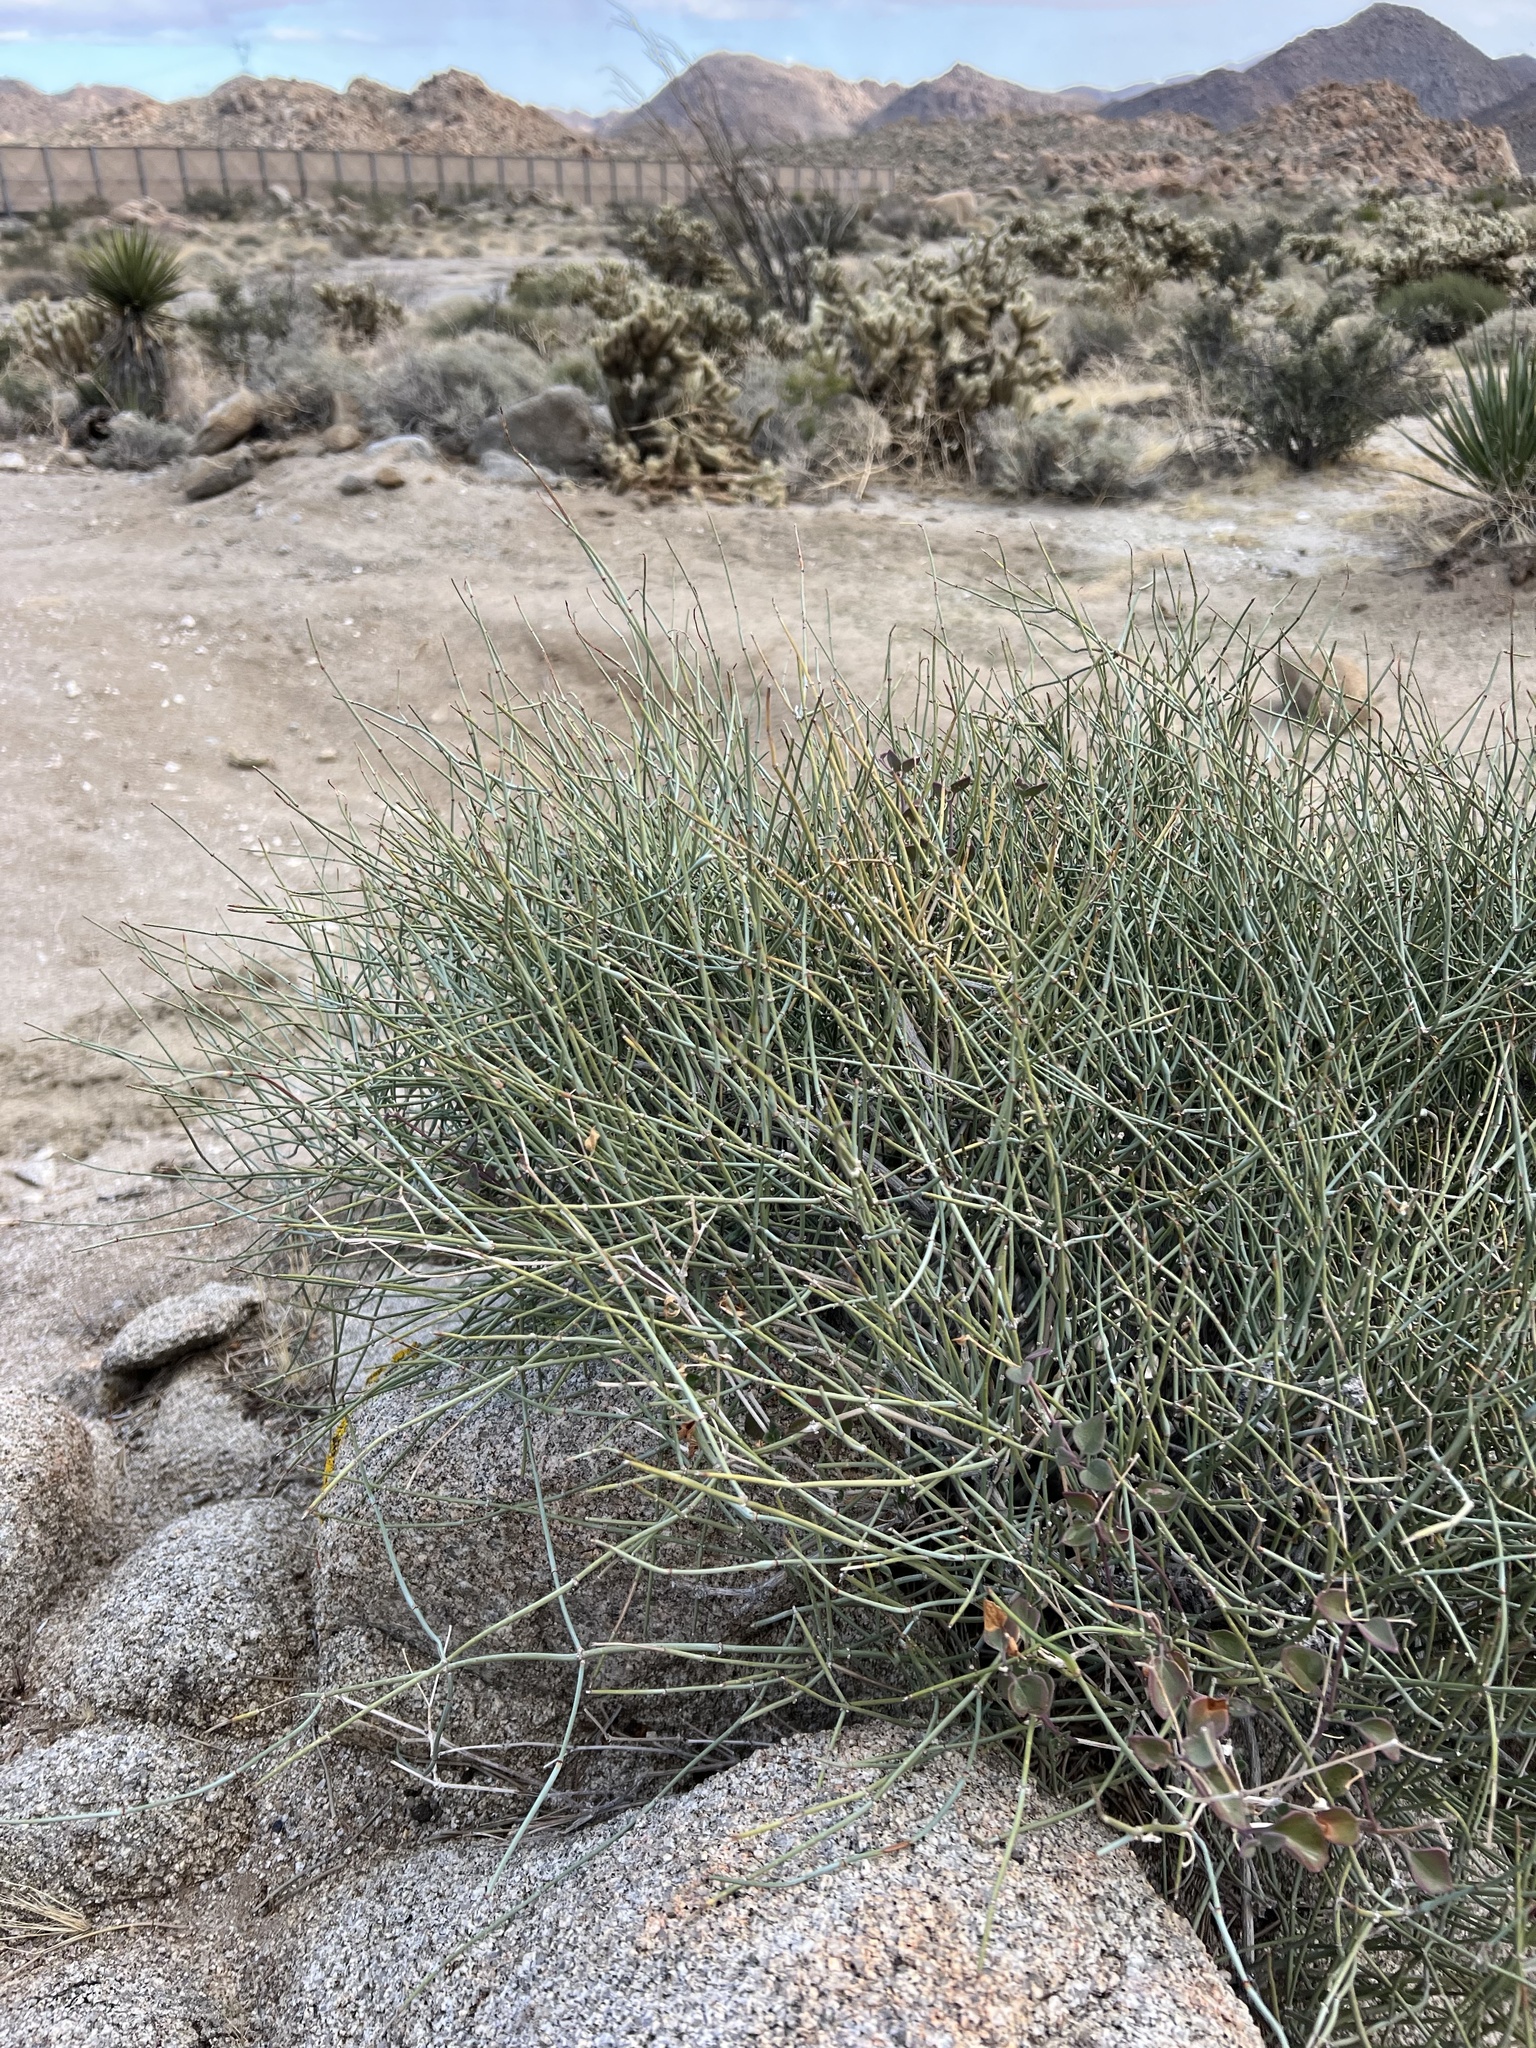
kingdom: Plantae
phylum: Tracheophyta
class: Gnetopsida
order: Ephedrales
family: Ephedraceae
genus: Ephedra
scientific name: Ephedra aspera
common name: Boundary ephedra
